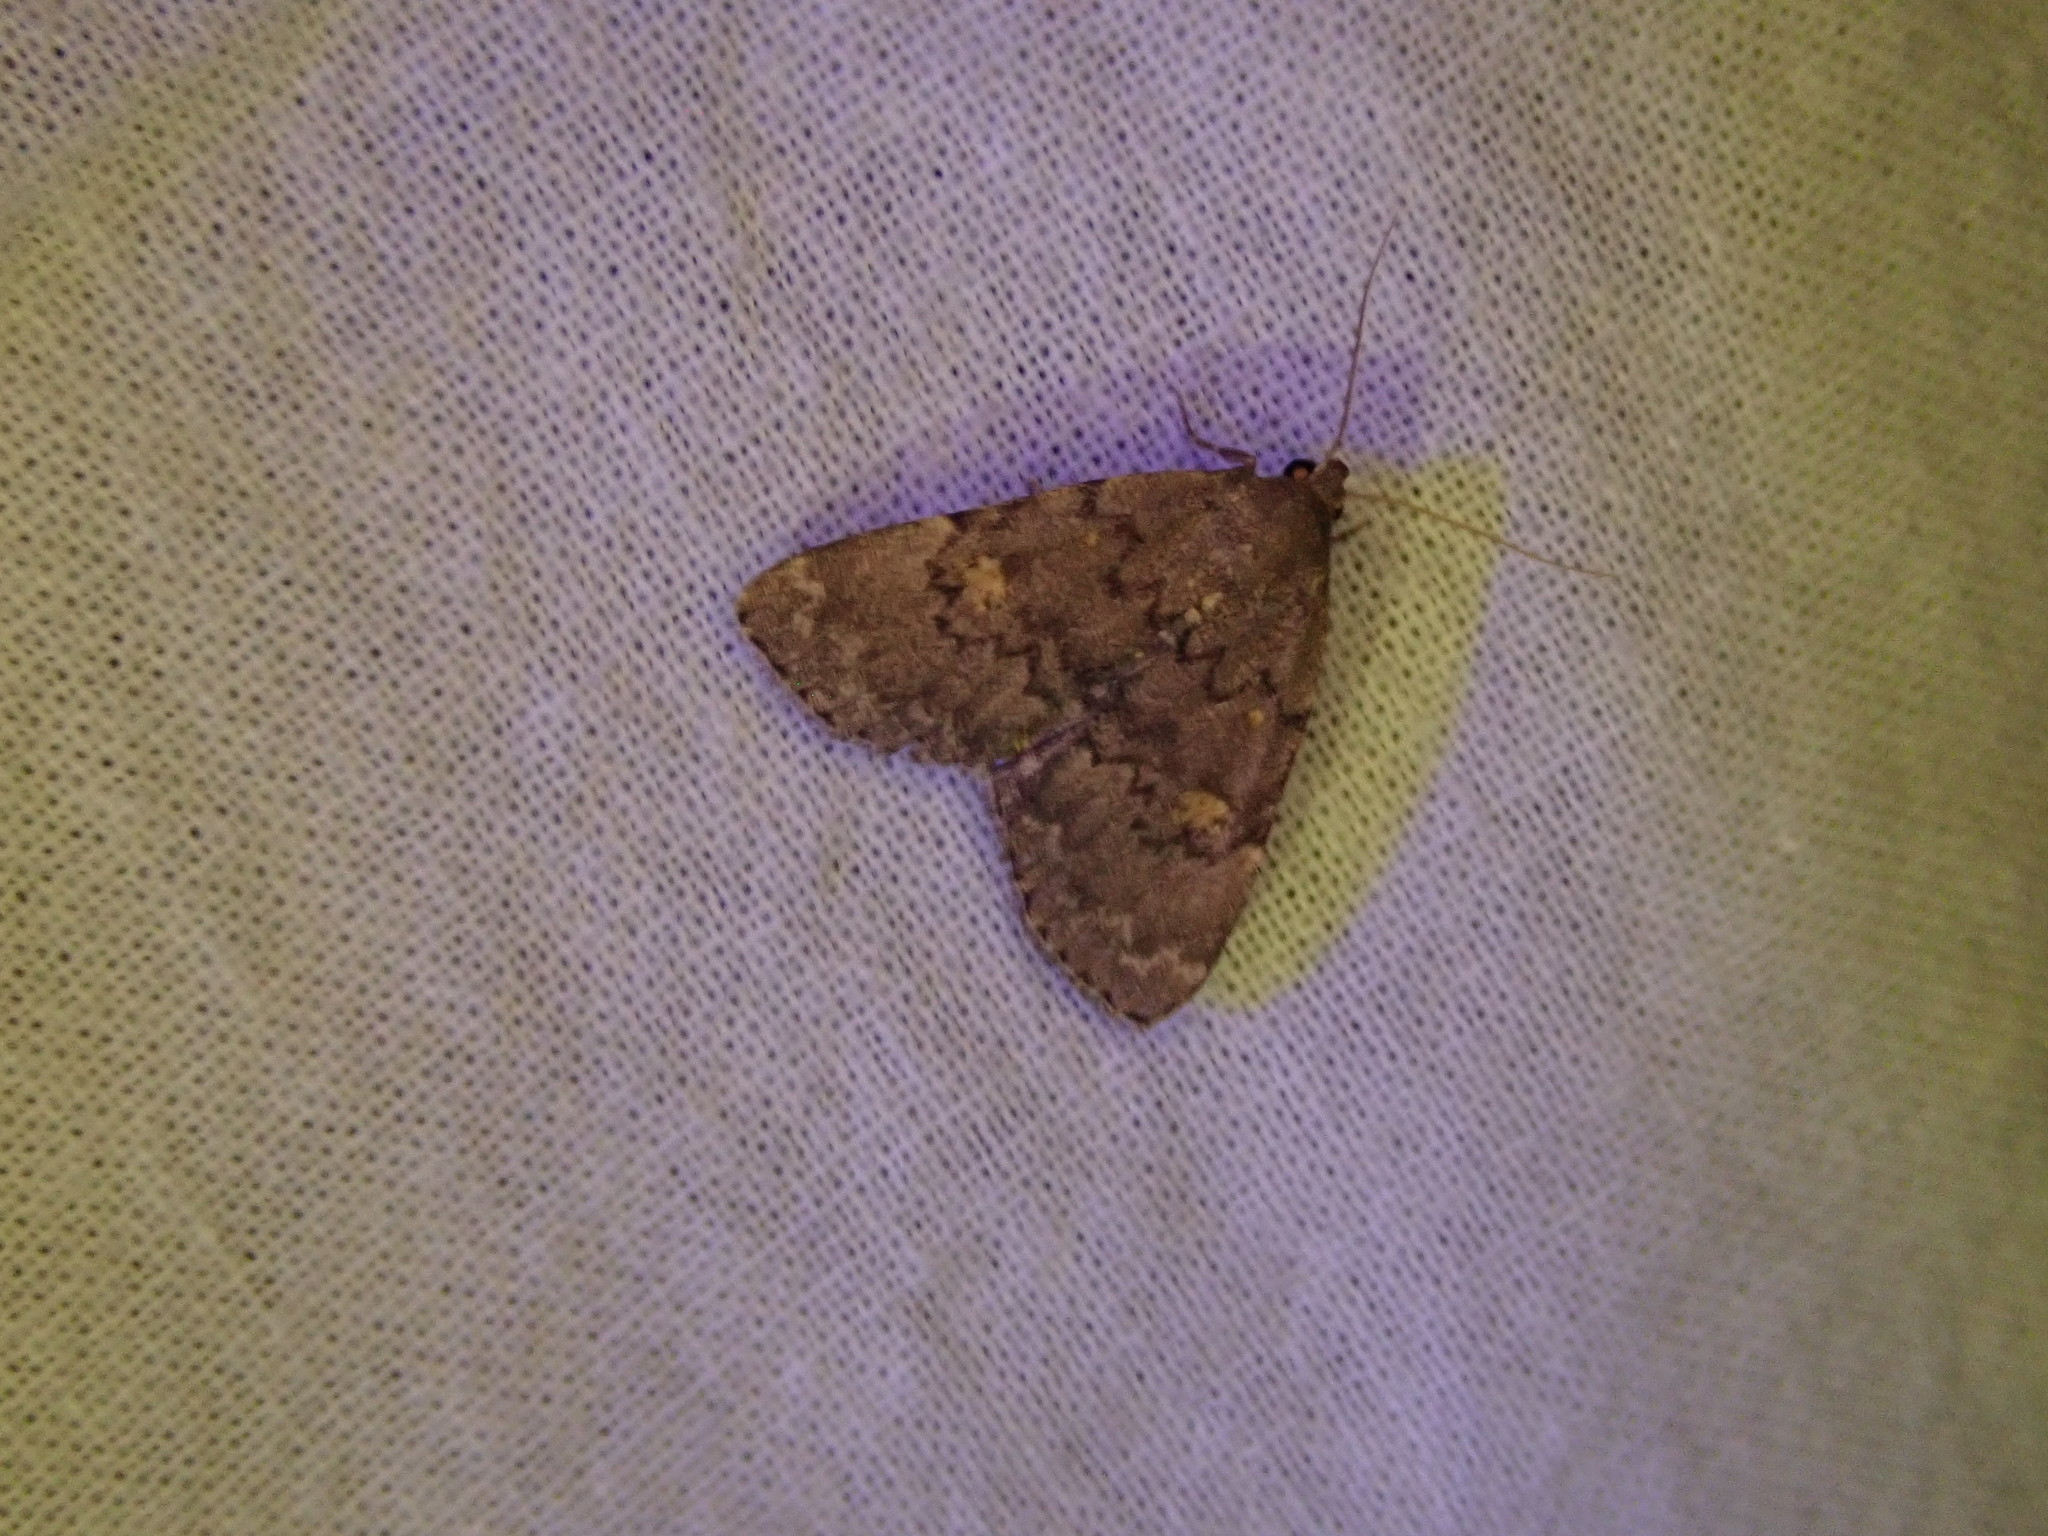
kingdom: Animalia
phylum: Arthropoda
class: Insecta
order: Lepidoptera
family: Erebidae
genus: Idia
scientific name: Idia aemula
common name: Common idia moth
